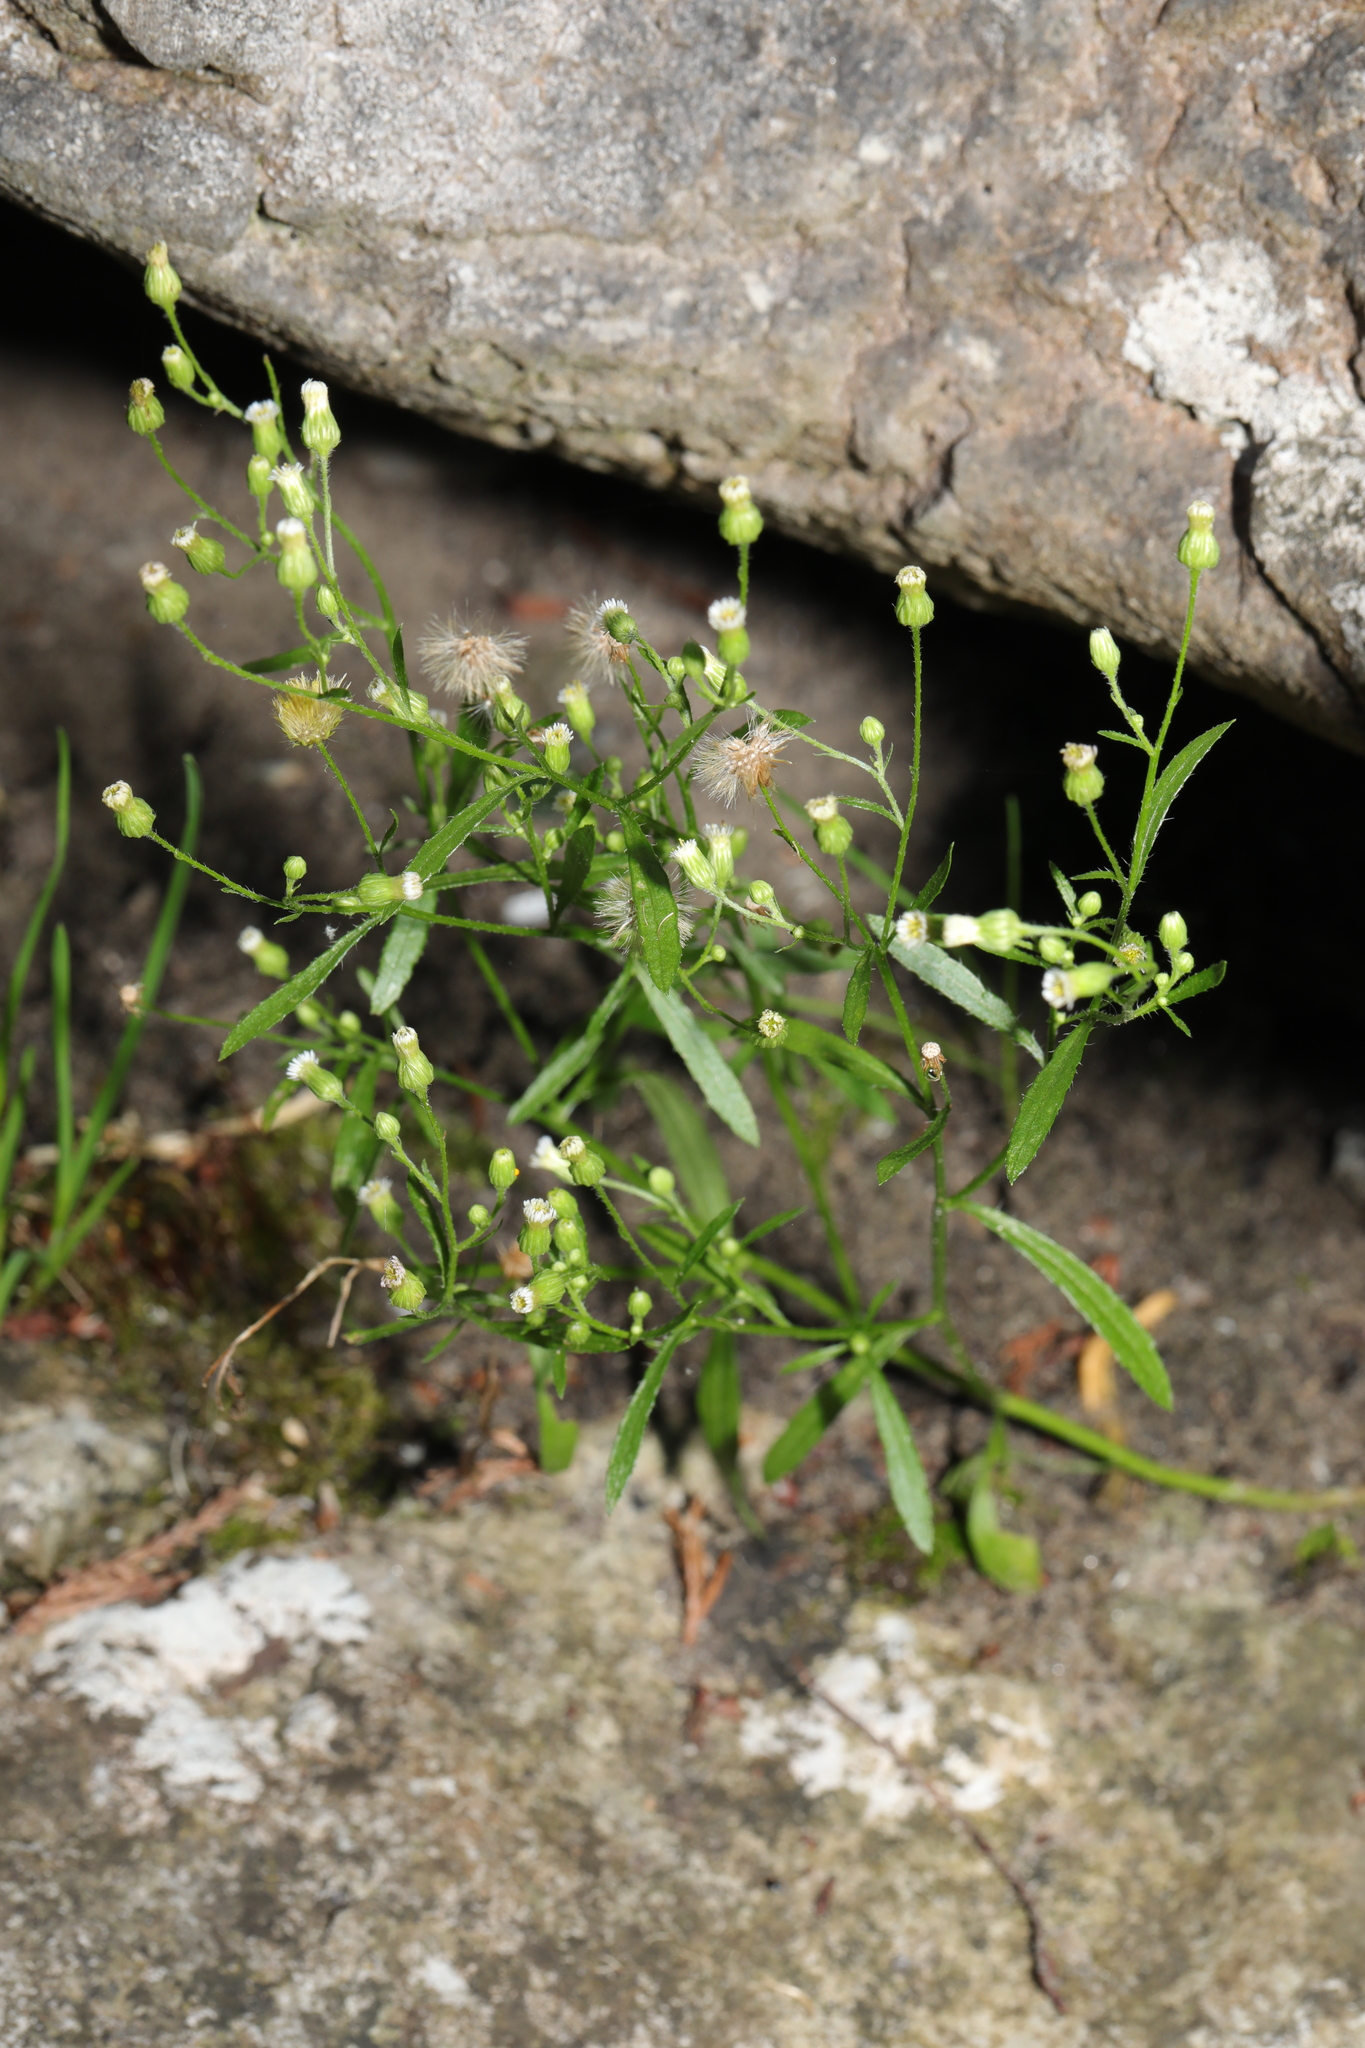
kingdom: Plantae
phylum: Tracheophyta
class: Magnoliopsida
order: Asterales
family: Asteraceae
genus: Erigeron
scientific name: Erigeron canadensis
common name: Canadian fleabane
